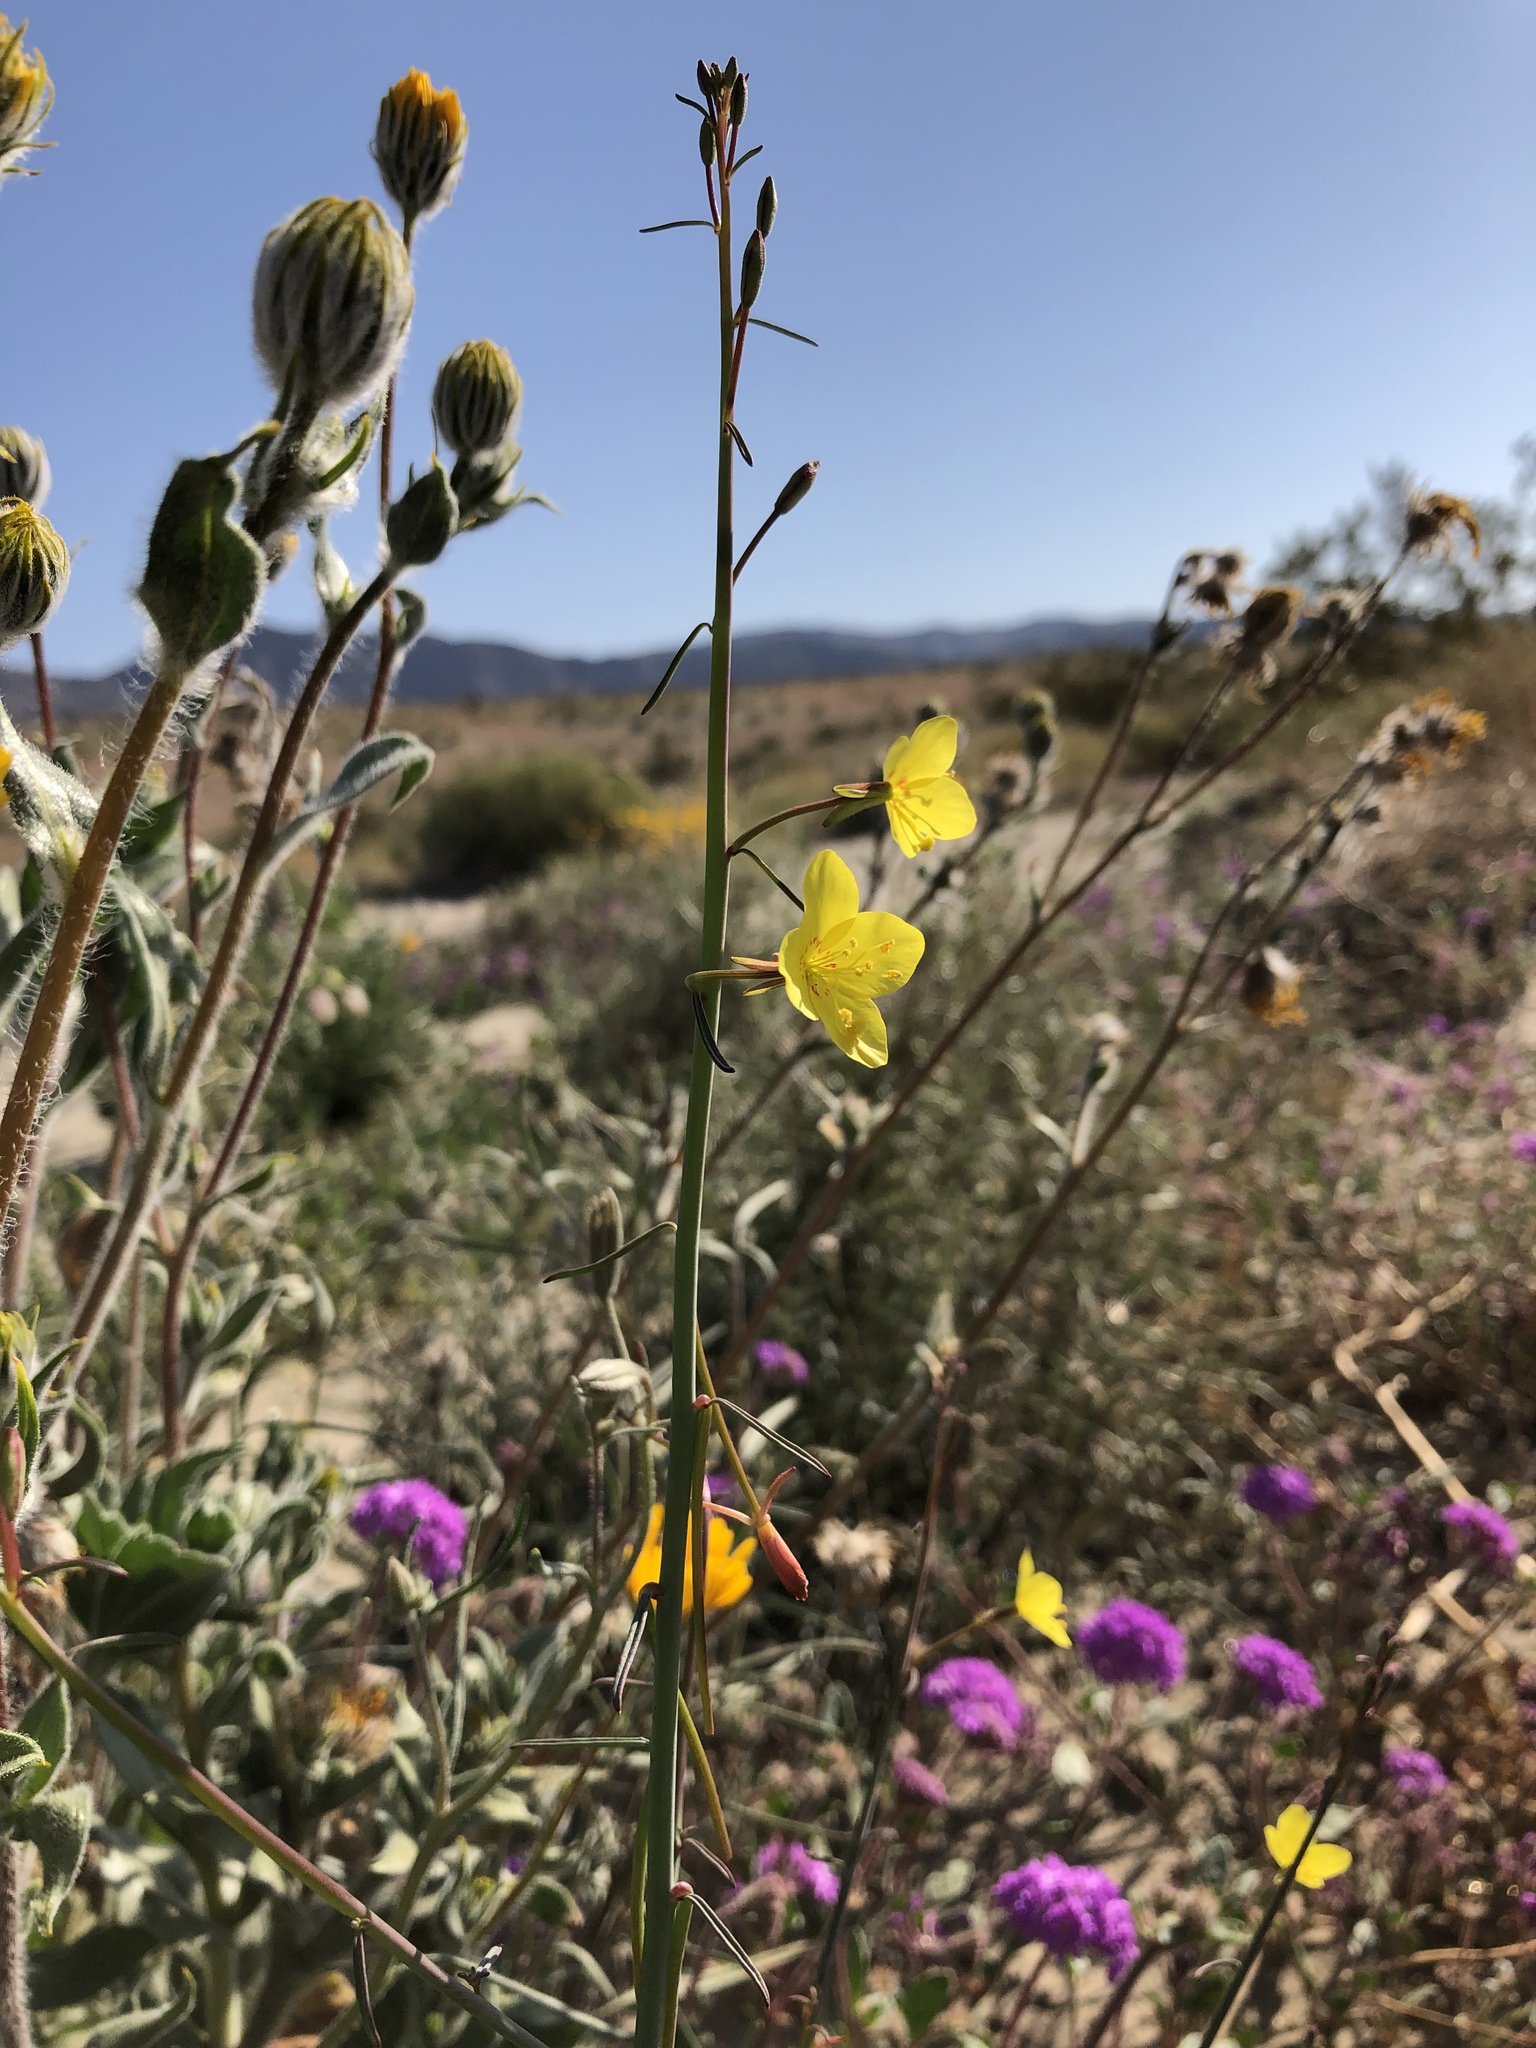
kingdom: Plantae
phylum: Tracheophyta
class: Magnoliopsida
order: Myrtales
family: Onagraceae
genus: Eulobus
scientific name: Eulobus californicus
